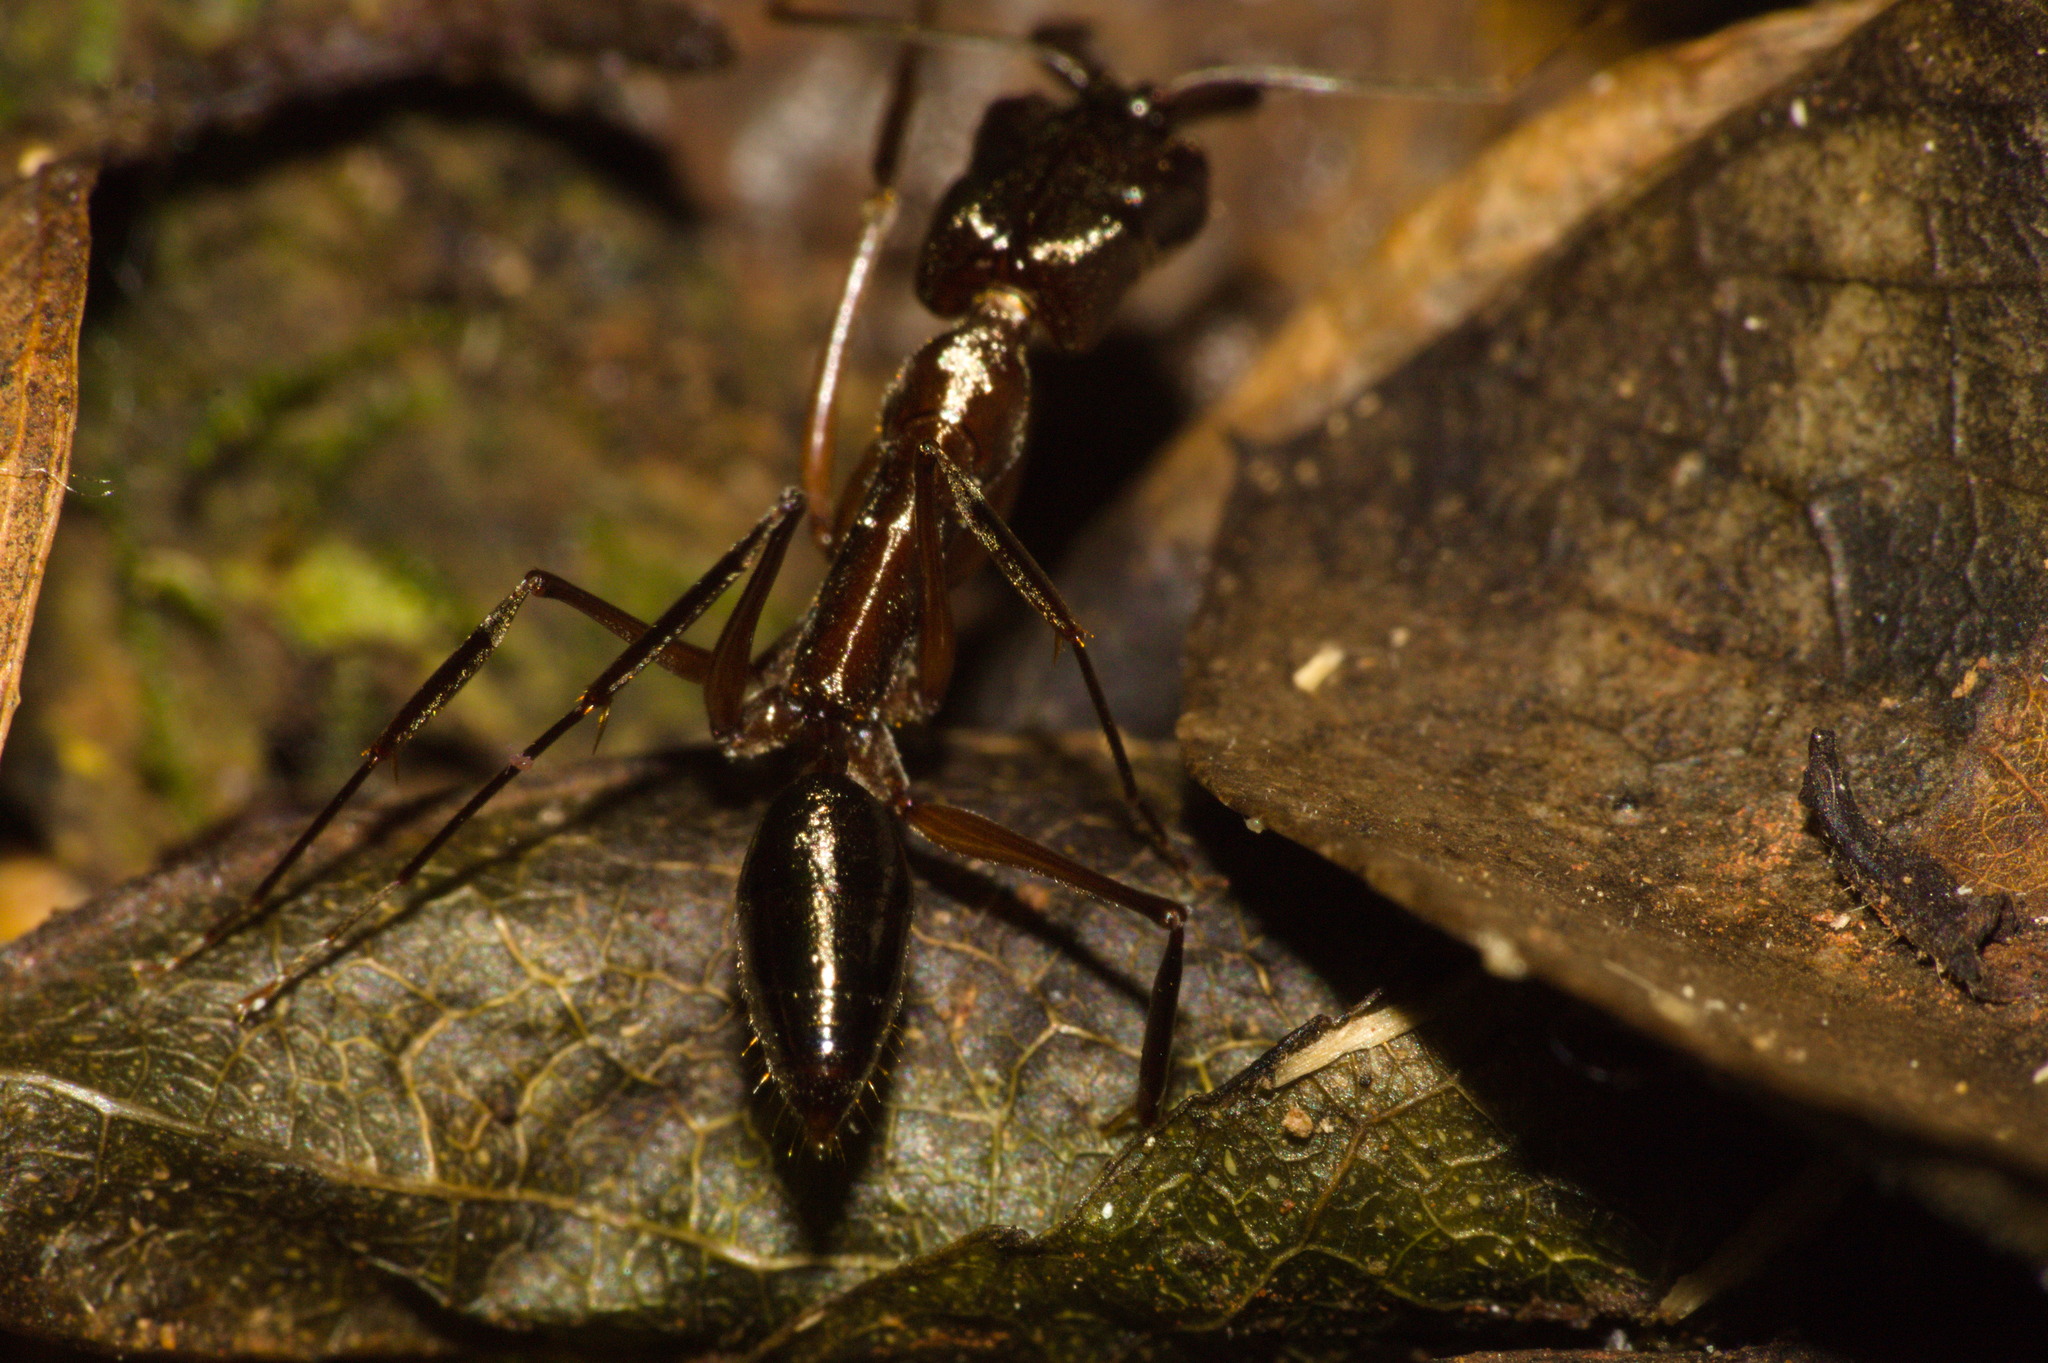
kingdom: Animalia
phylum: Arthropoda
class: Insecta
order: Hymenoptera
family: Formicidae
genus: Odontomachus
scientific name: Odontomachus chelifer
